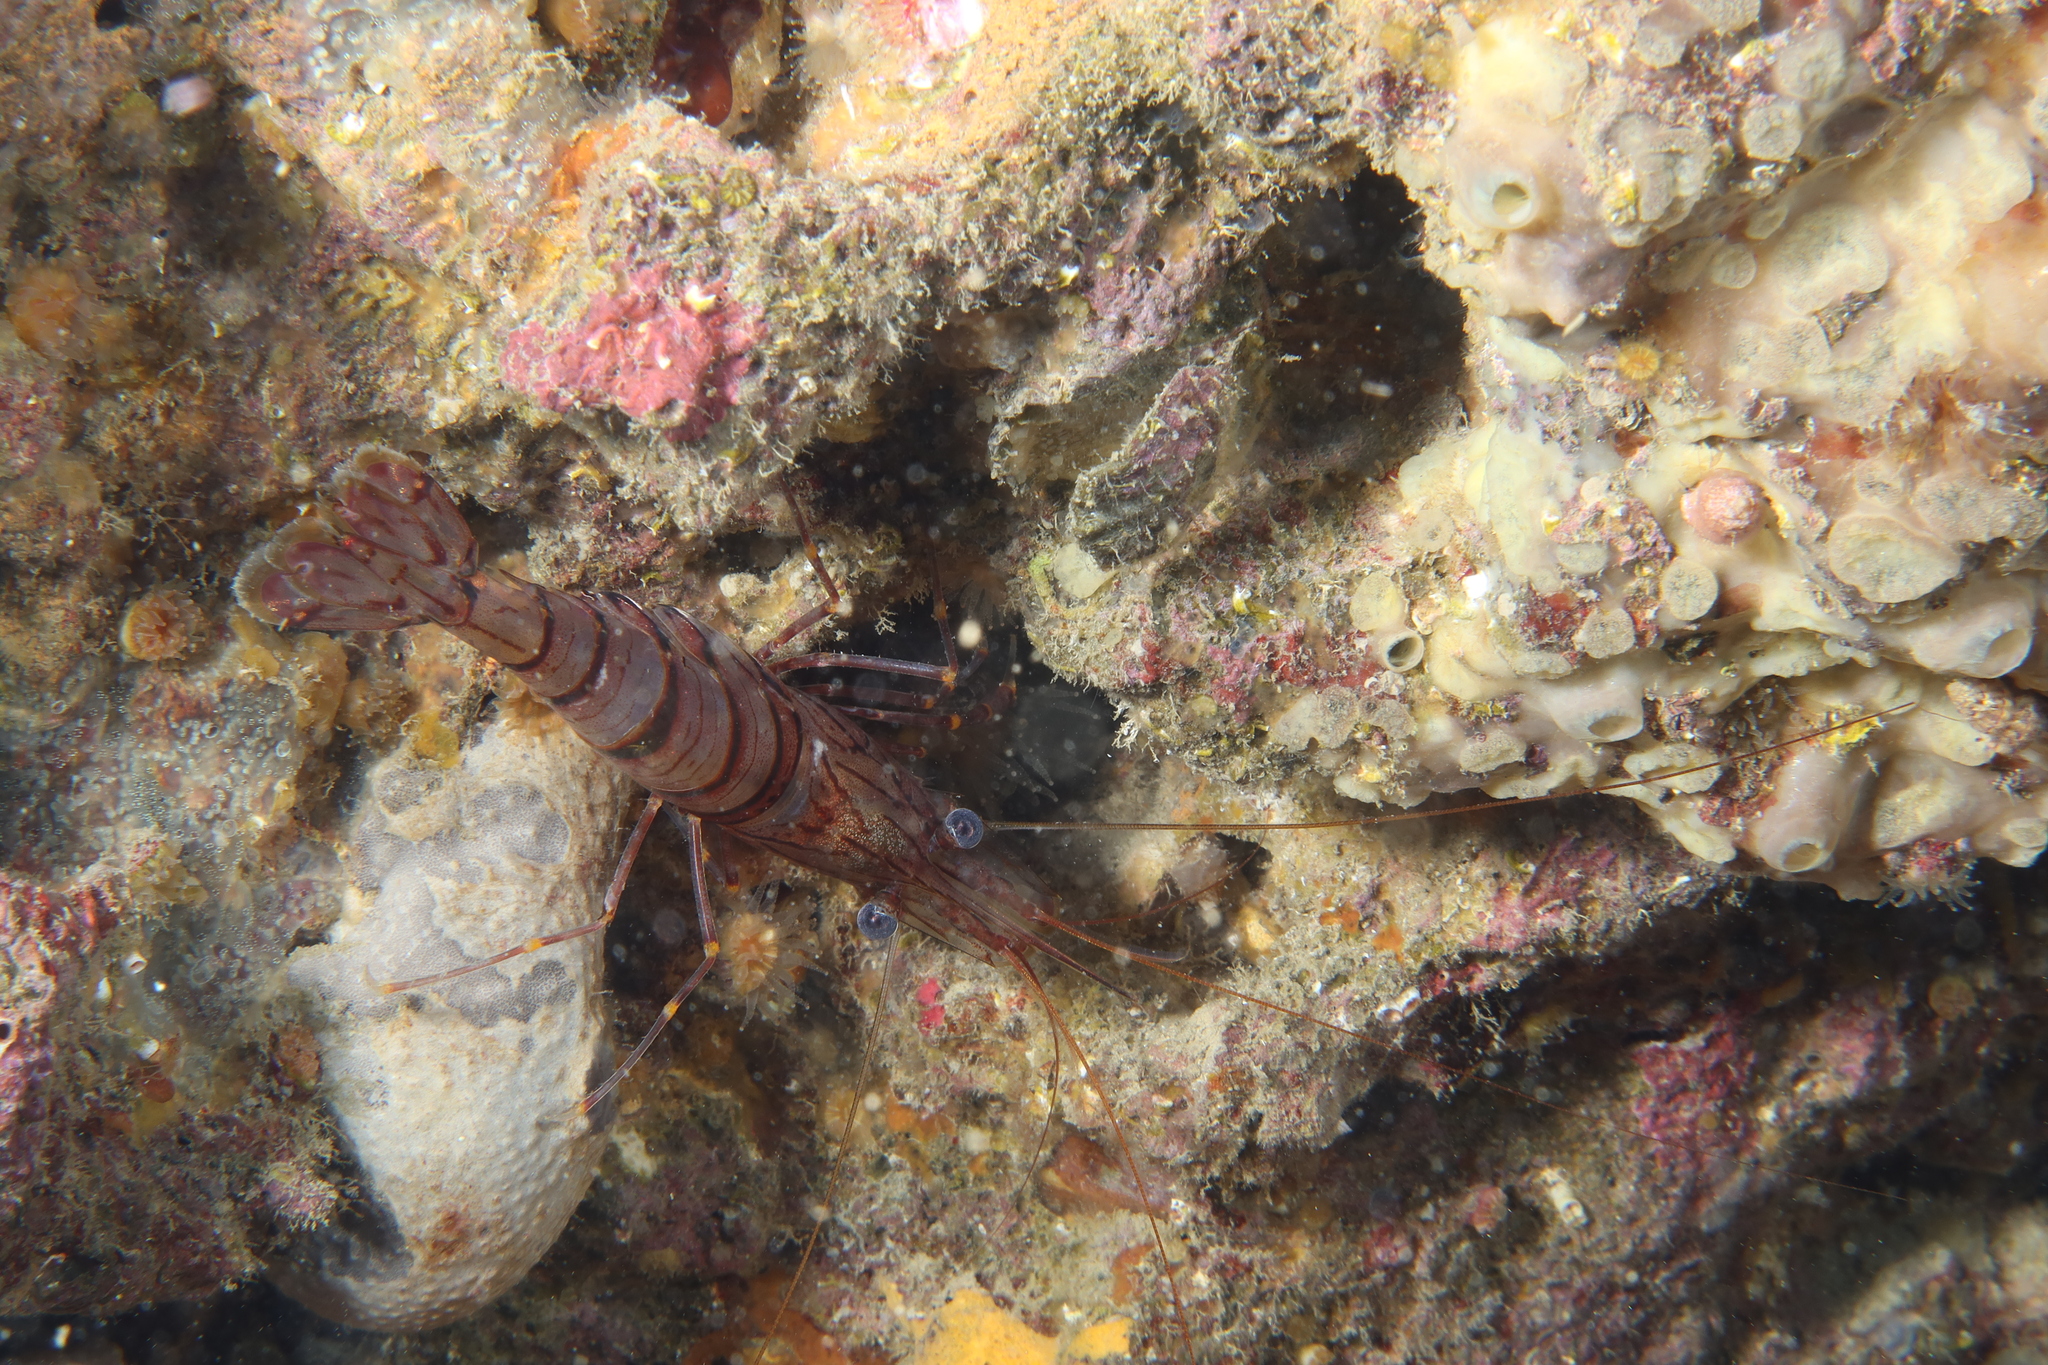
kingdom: Animalia
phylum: Arthropoda
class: Malacostraca
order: Decapoda
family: Palaemonidae
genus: Palaemon
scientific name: Palaemon serratus
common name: Common prawn
